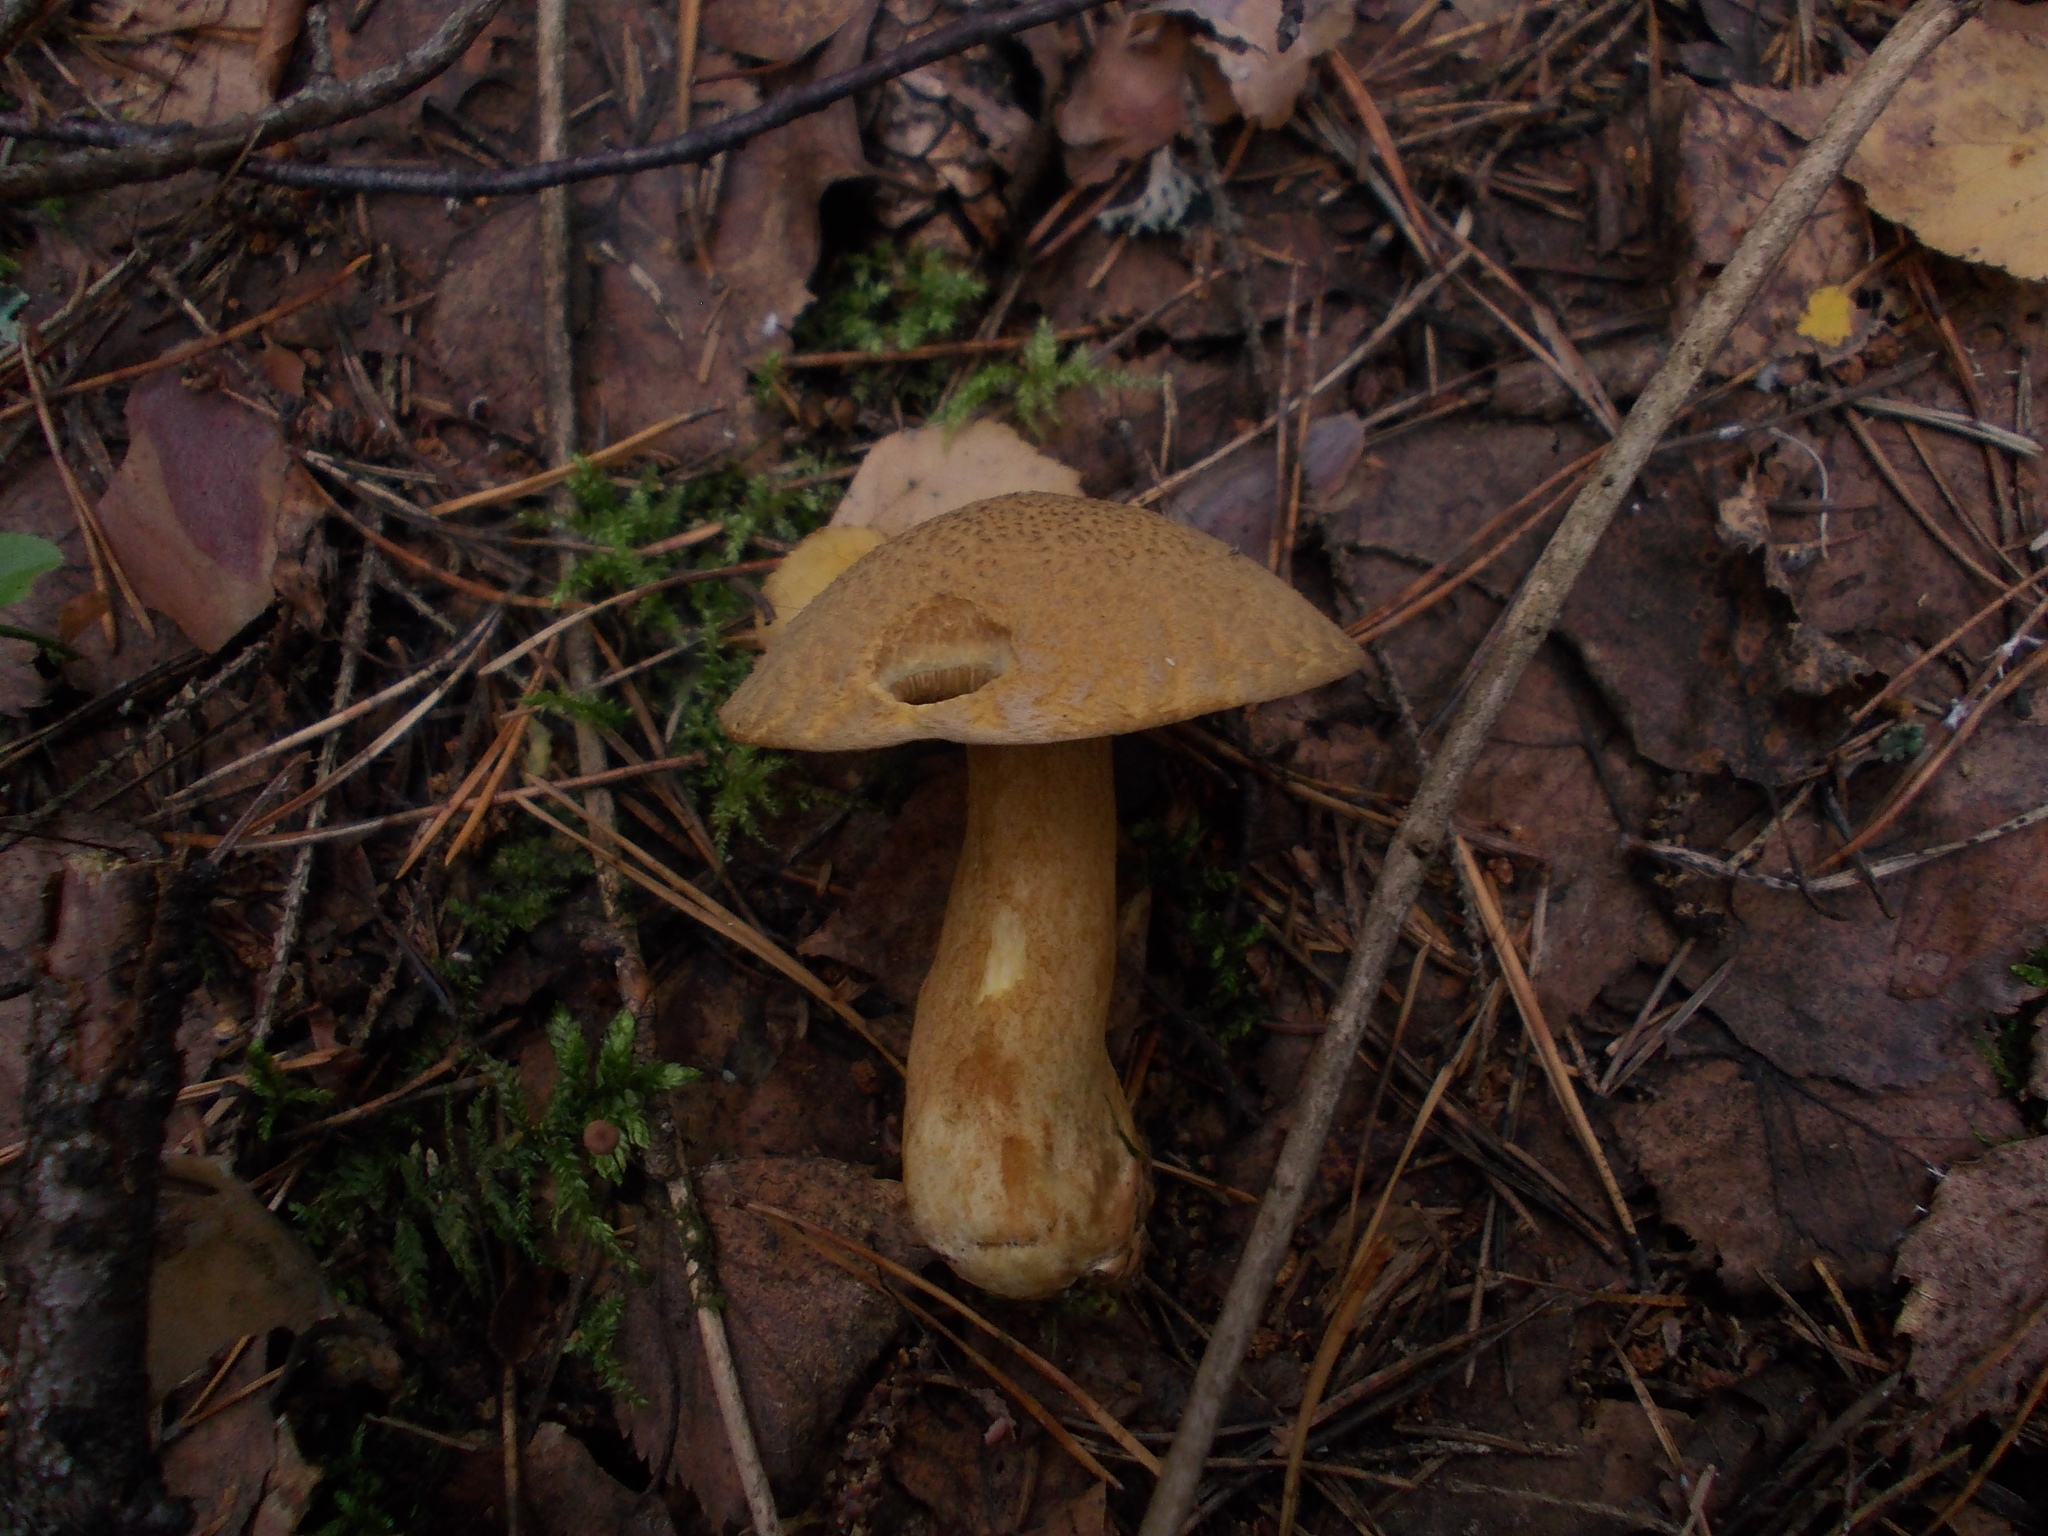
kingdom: Fungi
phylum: Basidiomycota
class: Agaricomycetes
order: Boletales
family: Suillaceae
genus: Suillus
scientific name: Suillus variegatus
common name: Velvet bolete
